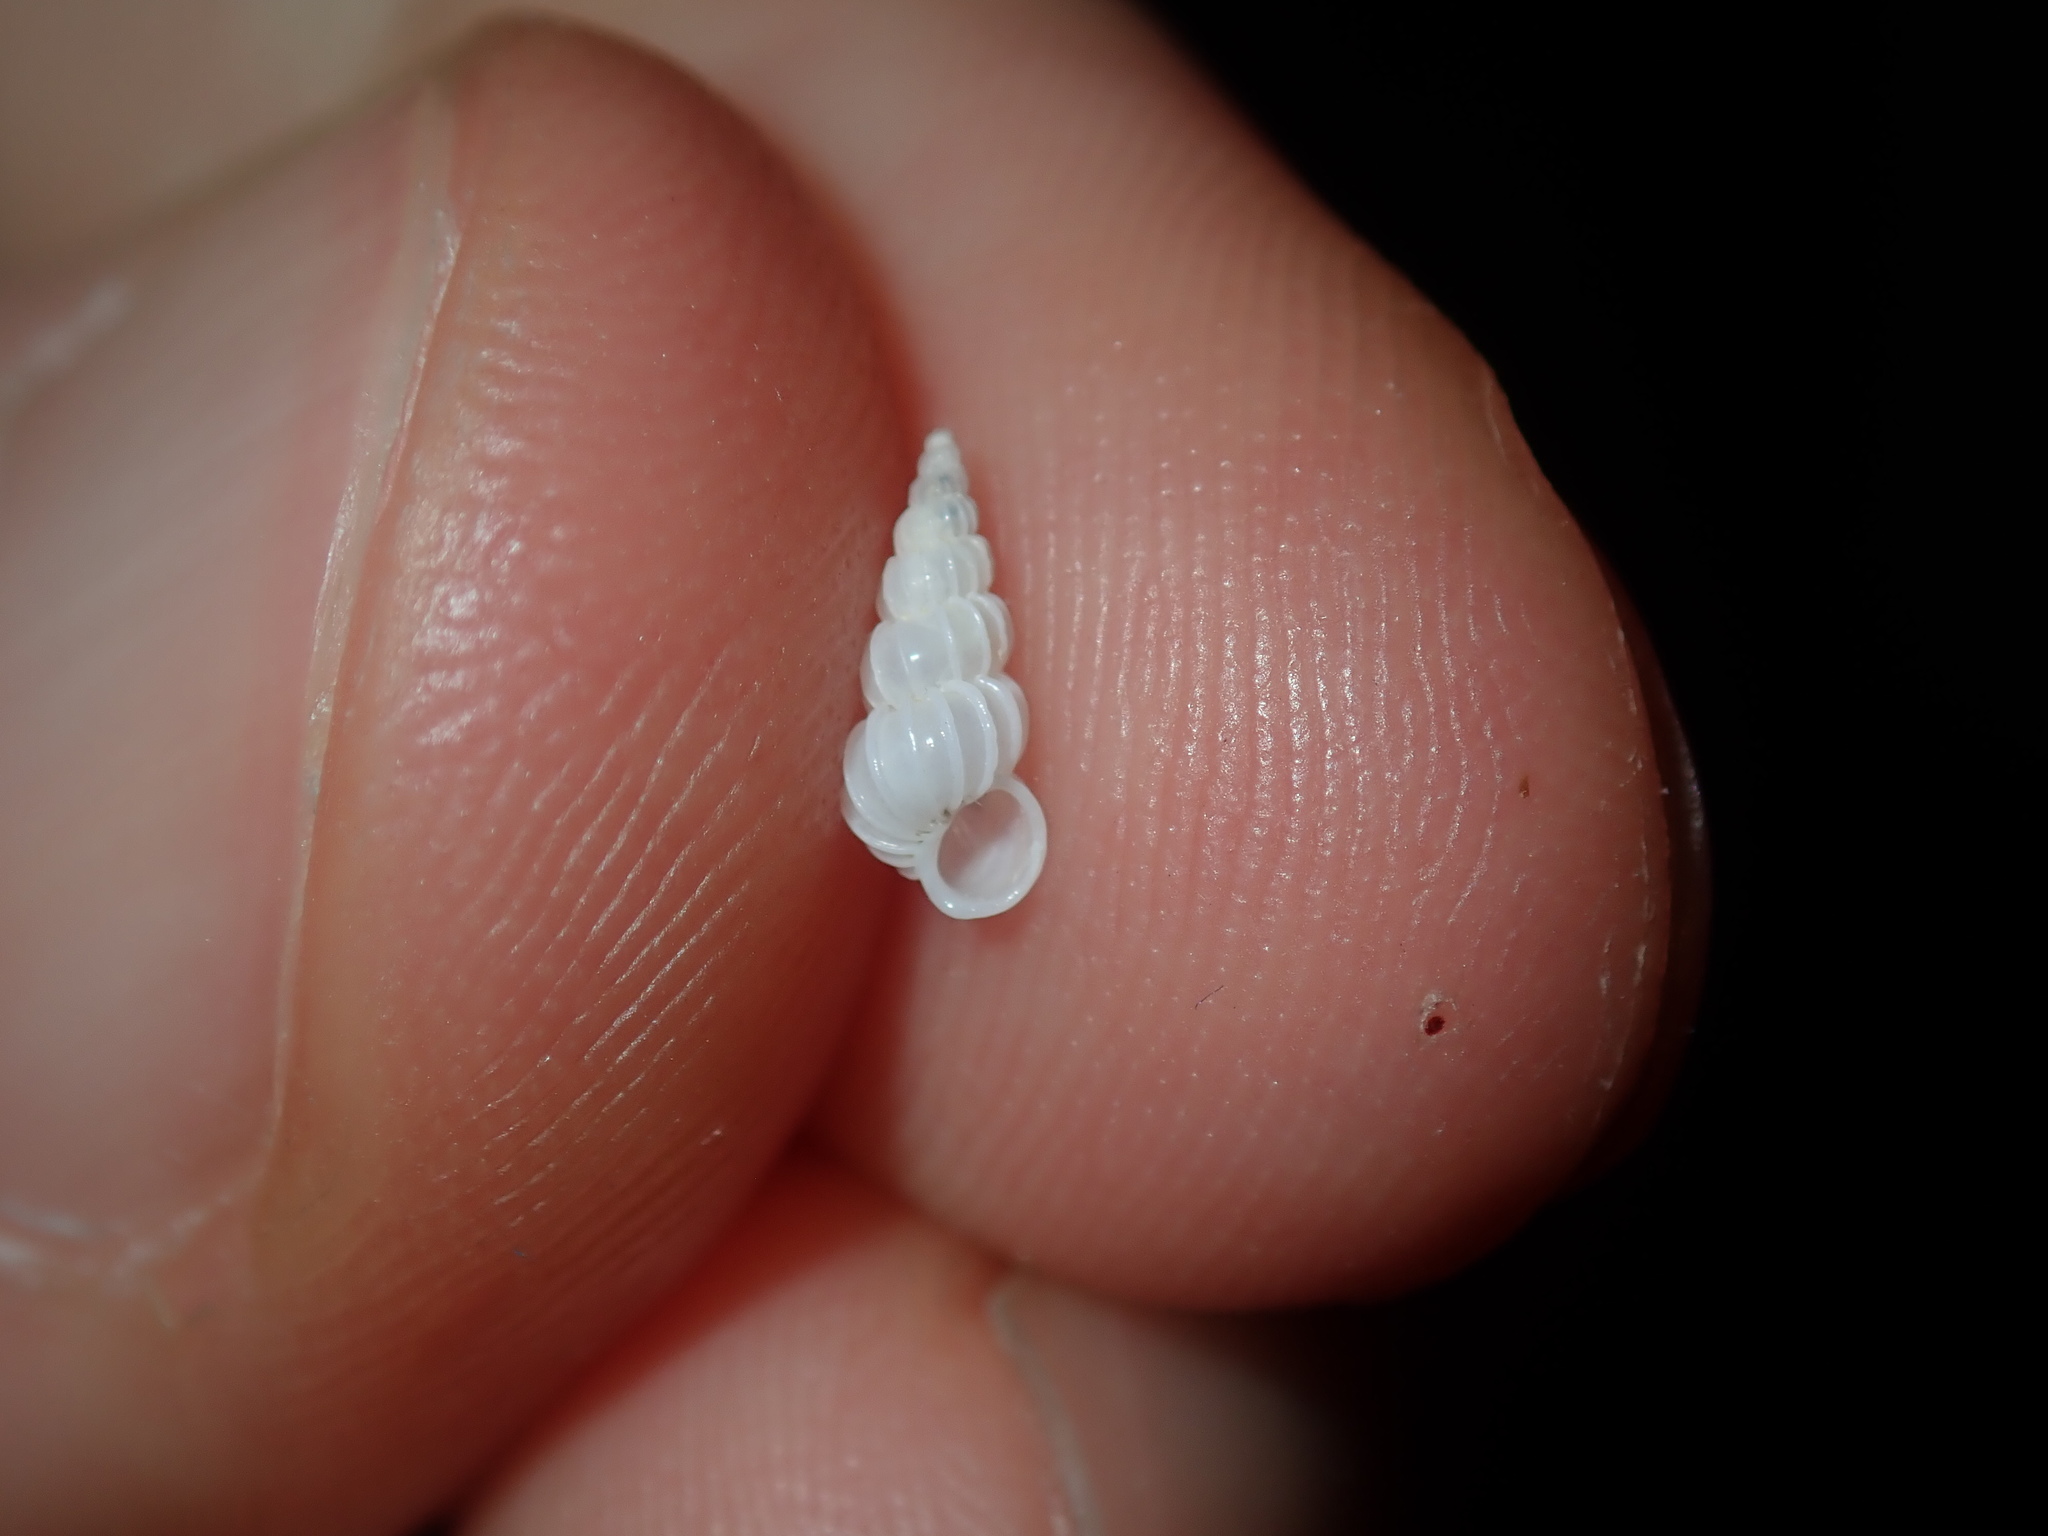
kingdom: Animalia
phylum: Mollusca
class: Gastropoda
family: Epitoniidae
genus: Epitonium
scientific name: Epitonium jukesianum
